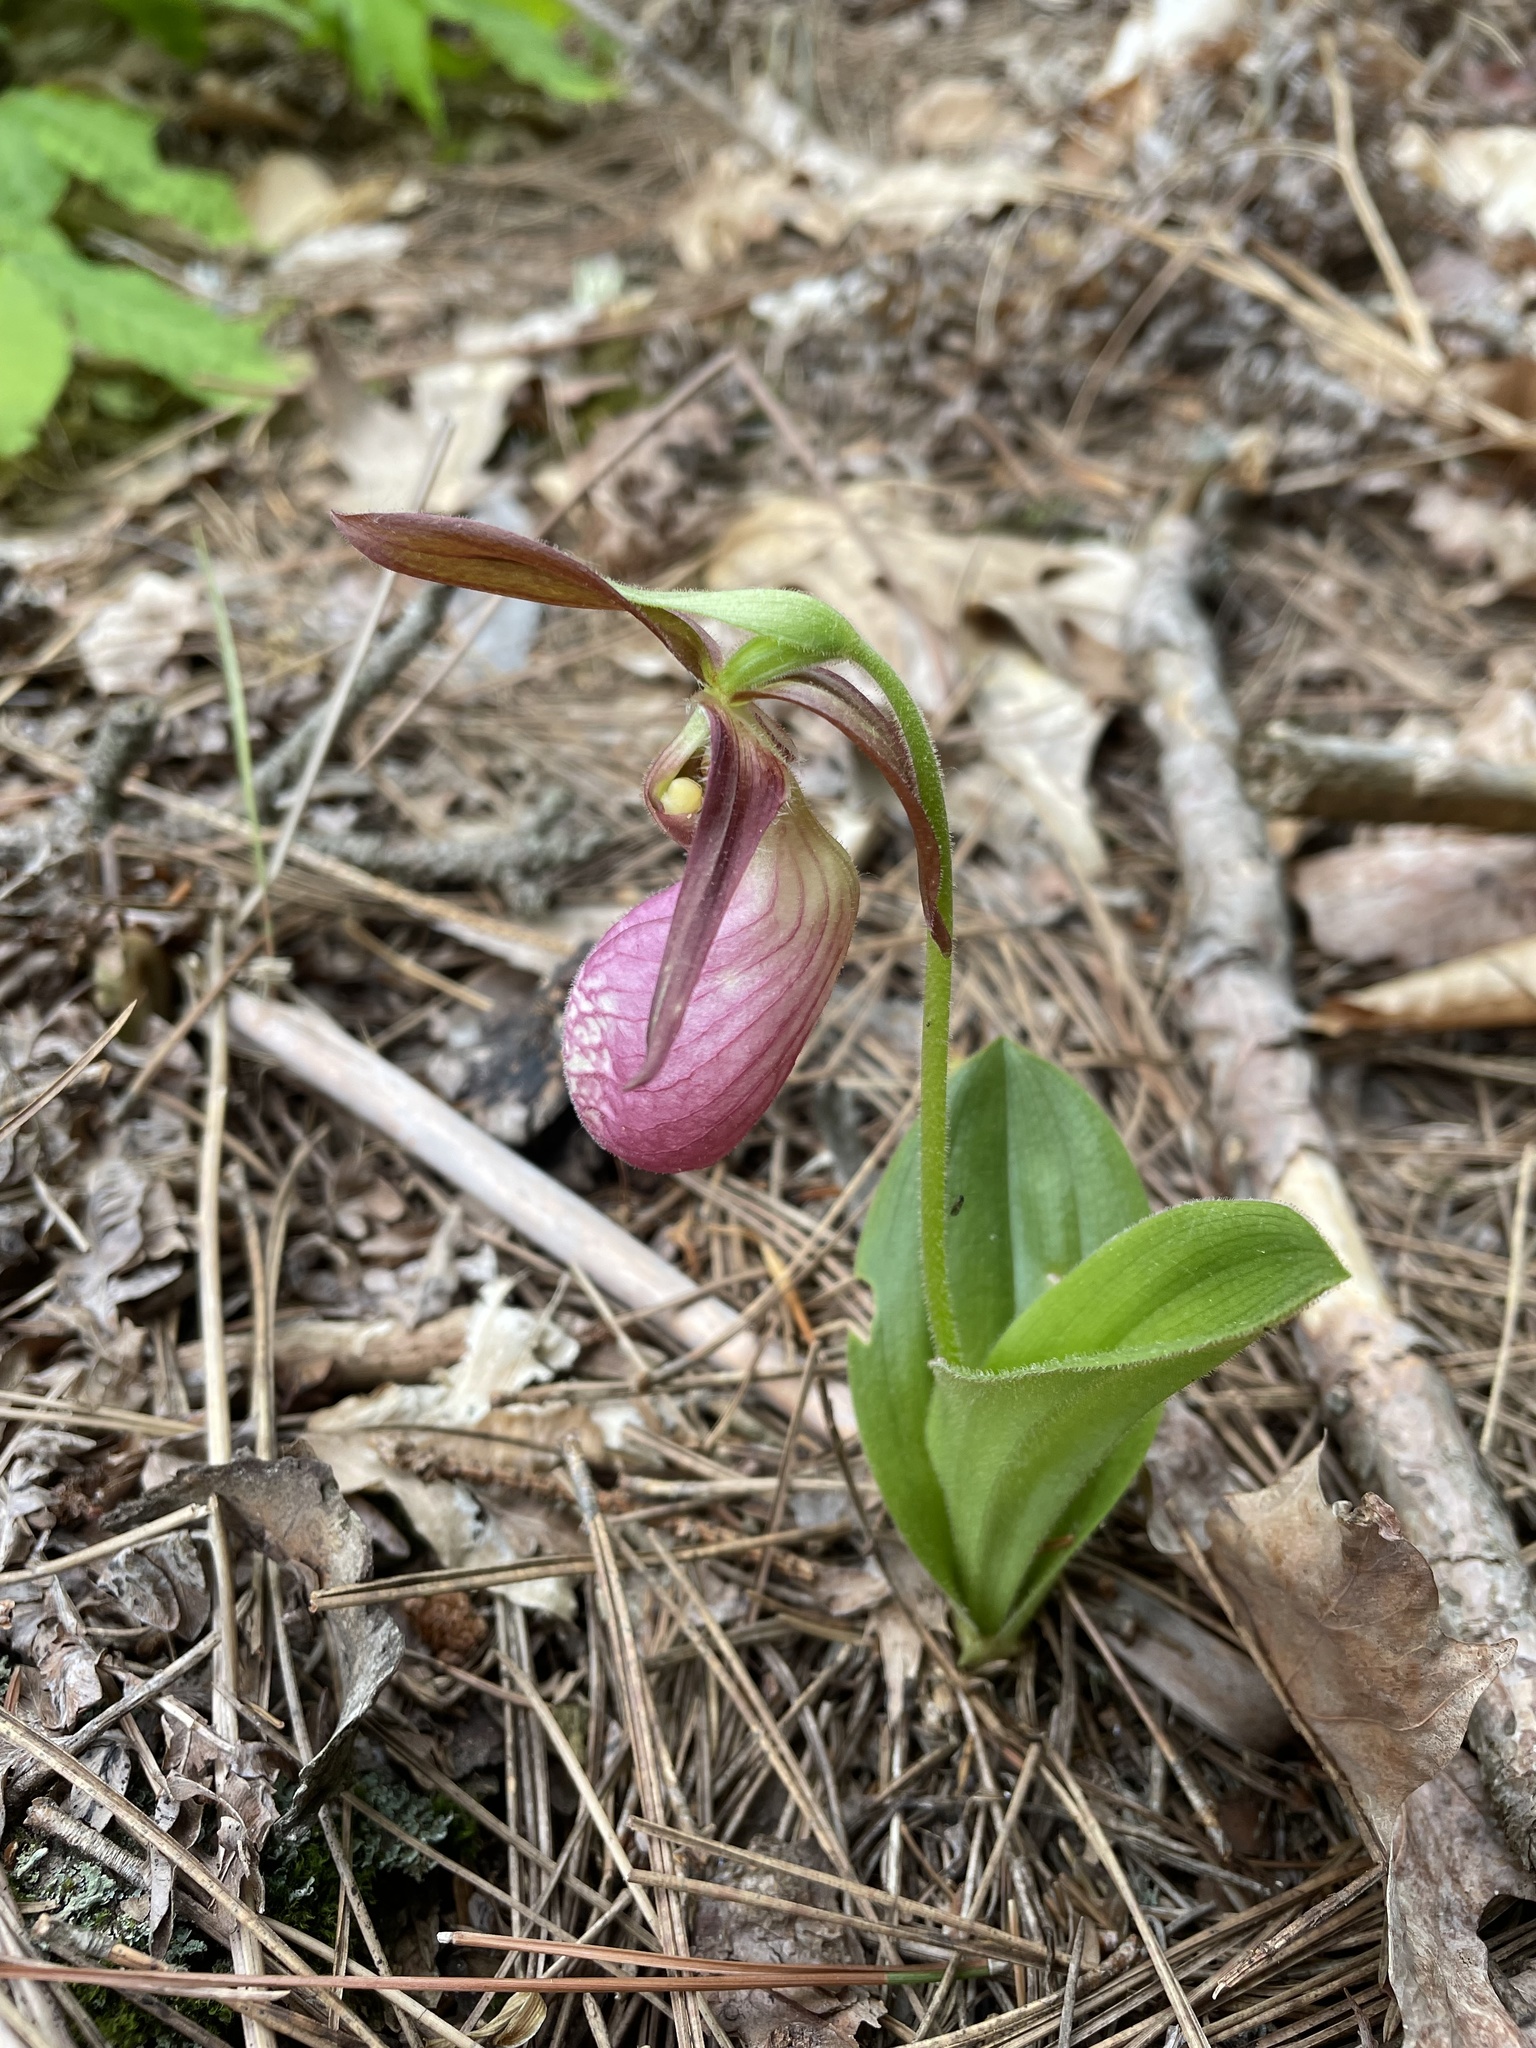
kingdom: Plantae
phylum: Tracheophyta
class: Liliopsida
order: Asparagales
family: Orchidaceae
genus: Cypripedium
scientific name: Cypripedium acaule
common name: Pink lady's-slipper
